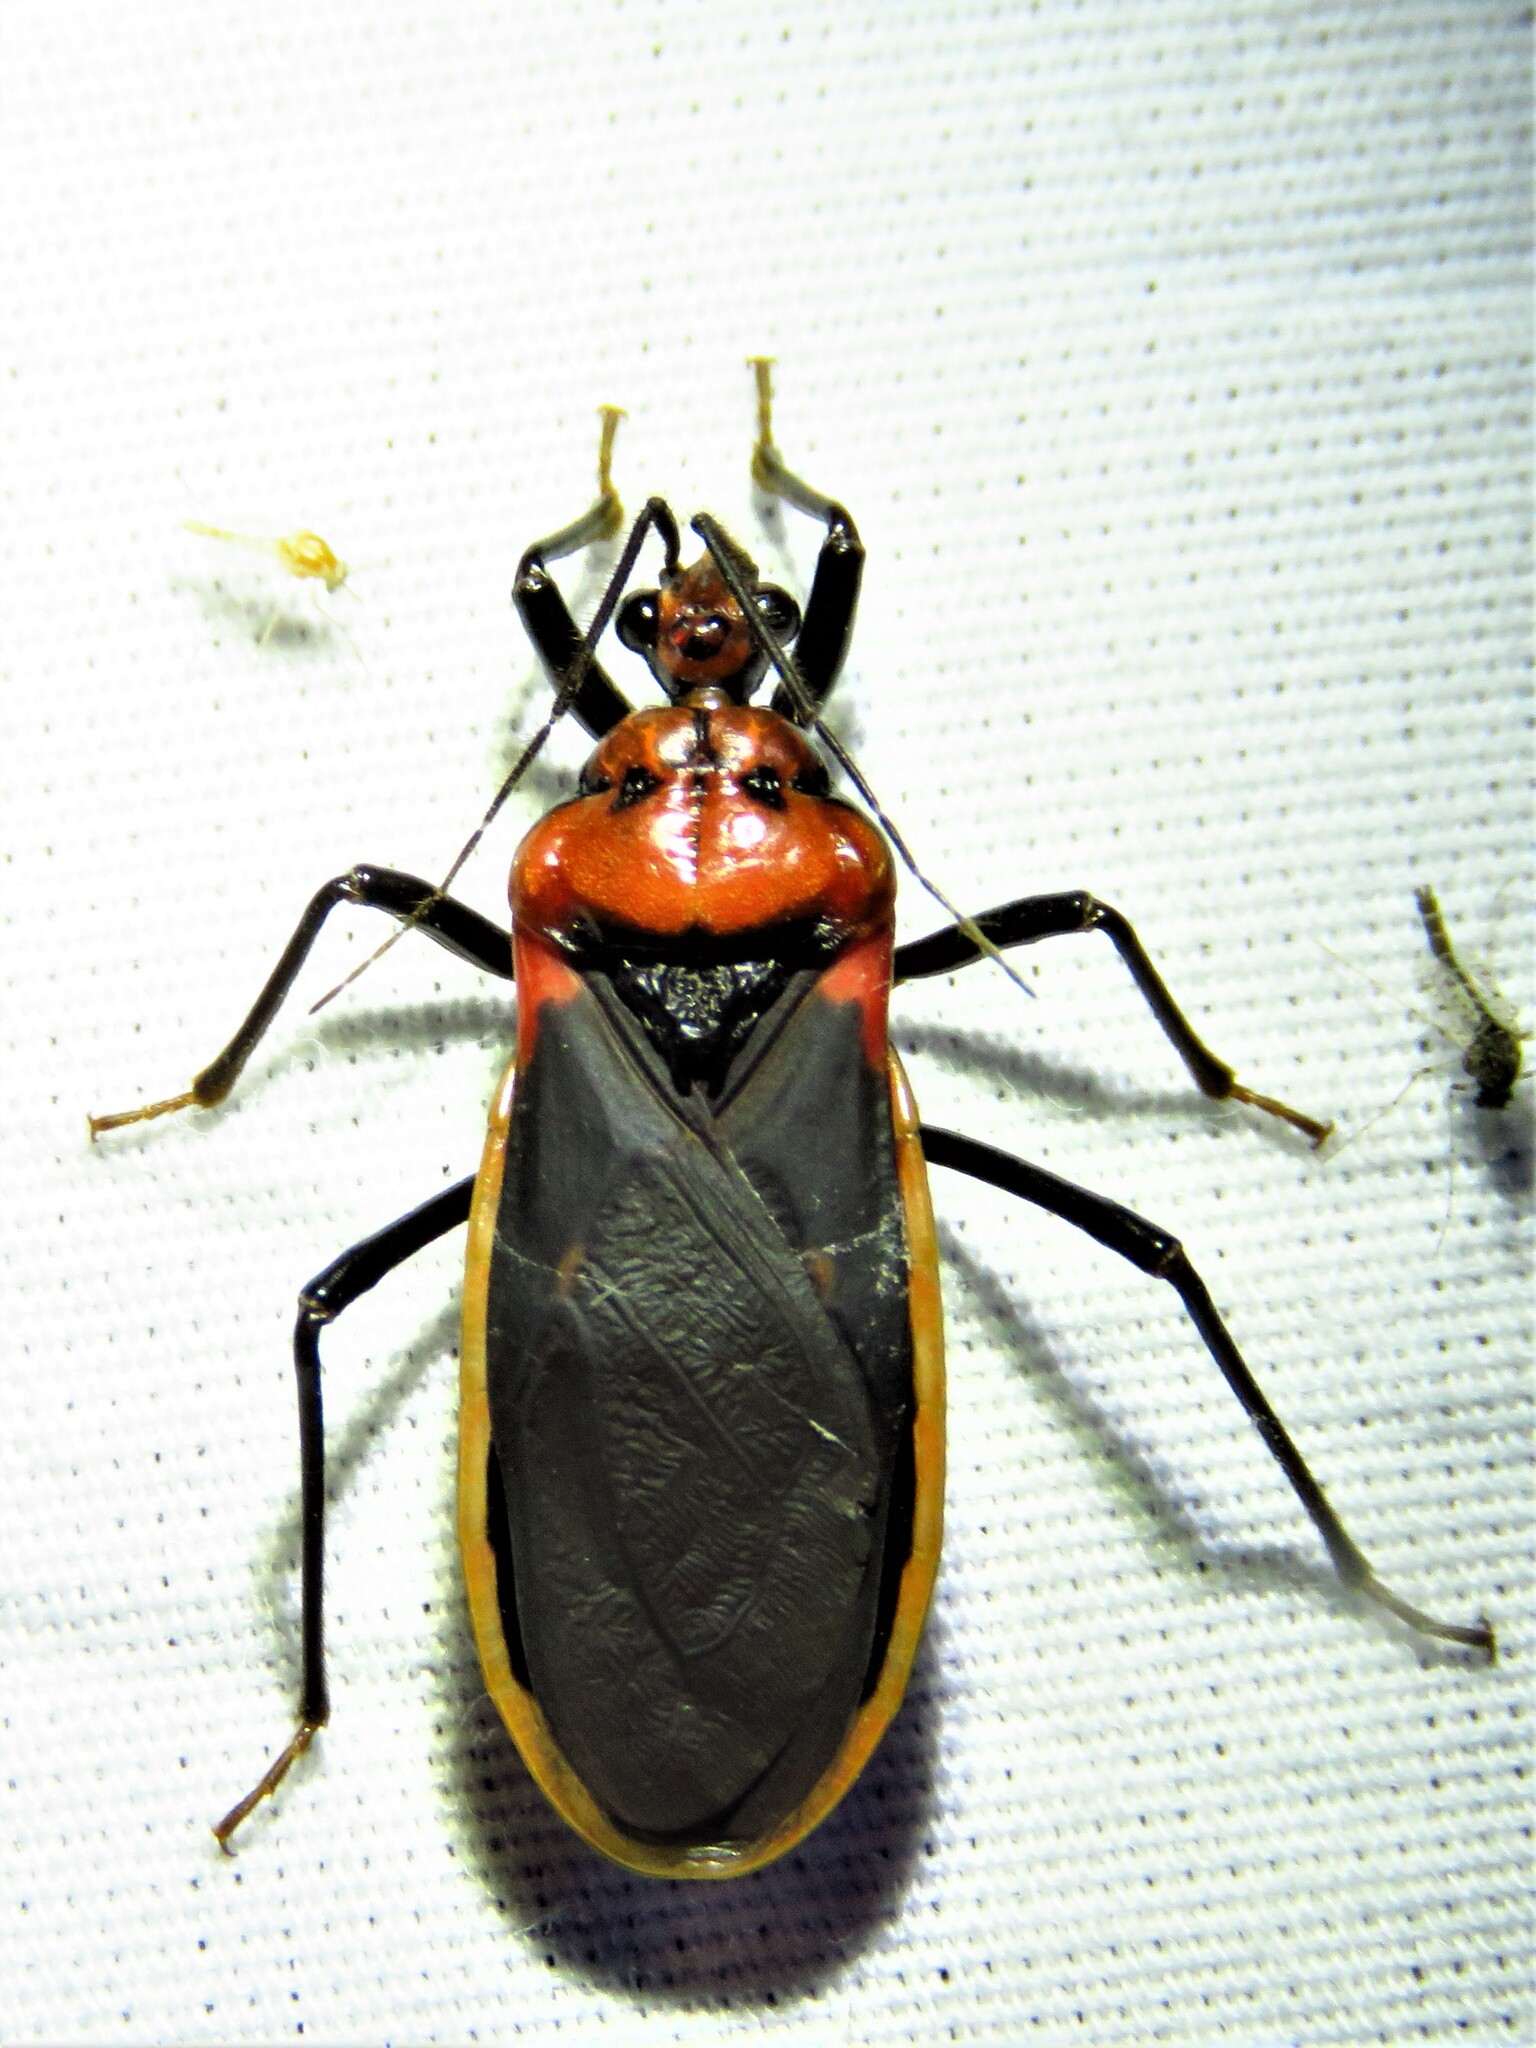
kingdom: Animalia
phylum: Arthropoda
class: Insecta
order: Hemiptera
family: Reduviidae
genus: Rhiginia
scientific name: Rhiginia cinctiventris
